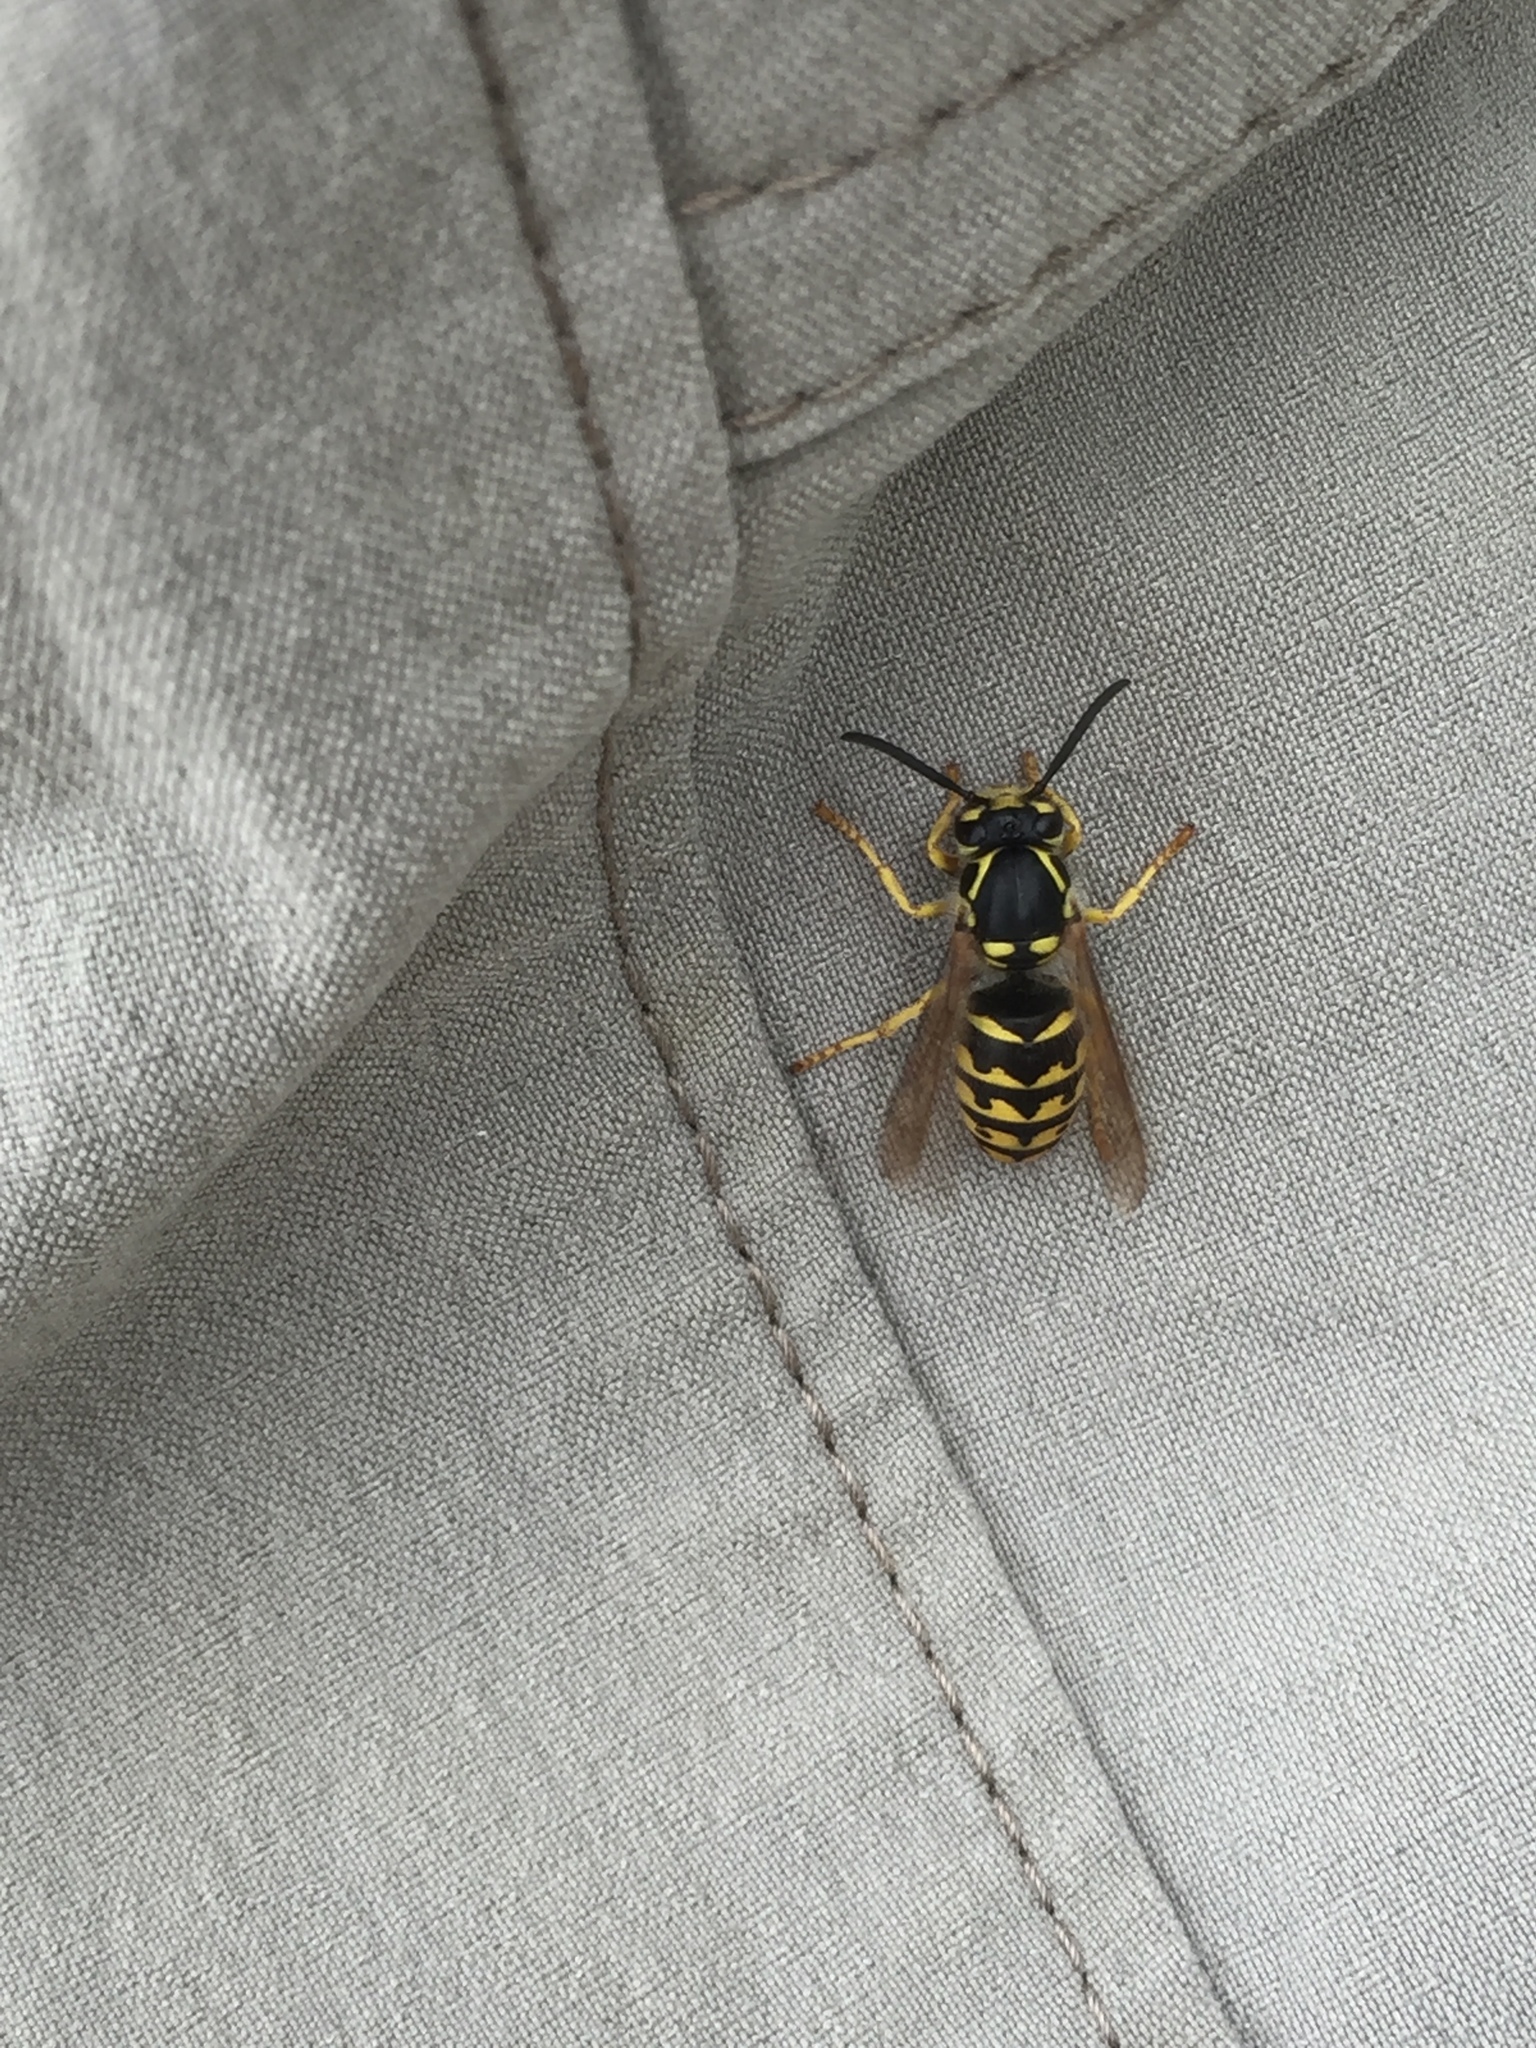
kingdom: Animalia
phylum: Arthropoda
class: Insecta
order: Hymenoptera
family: Vespidae
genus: Dolichovespula
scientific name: Dolichovespula arenaria
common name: Aerial yellowjacket
